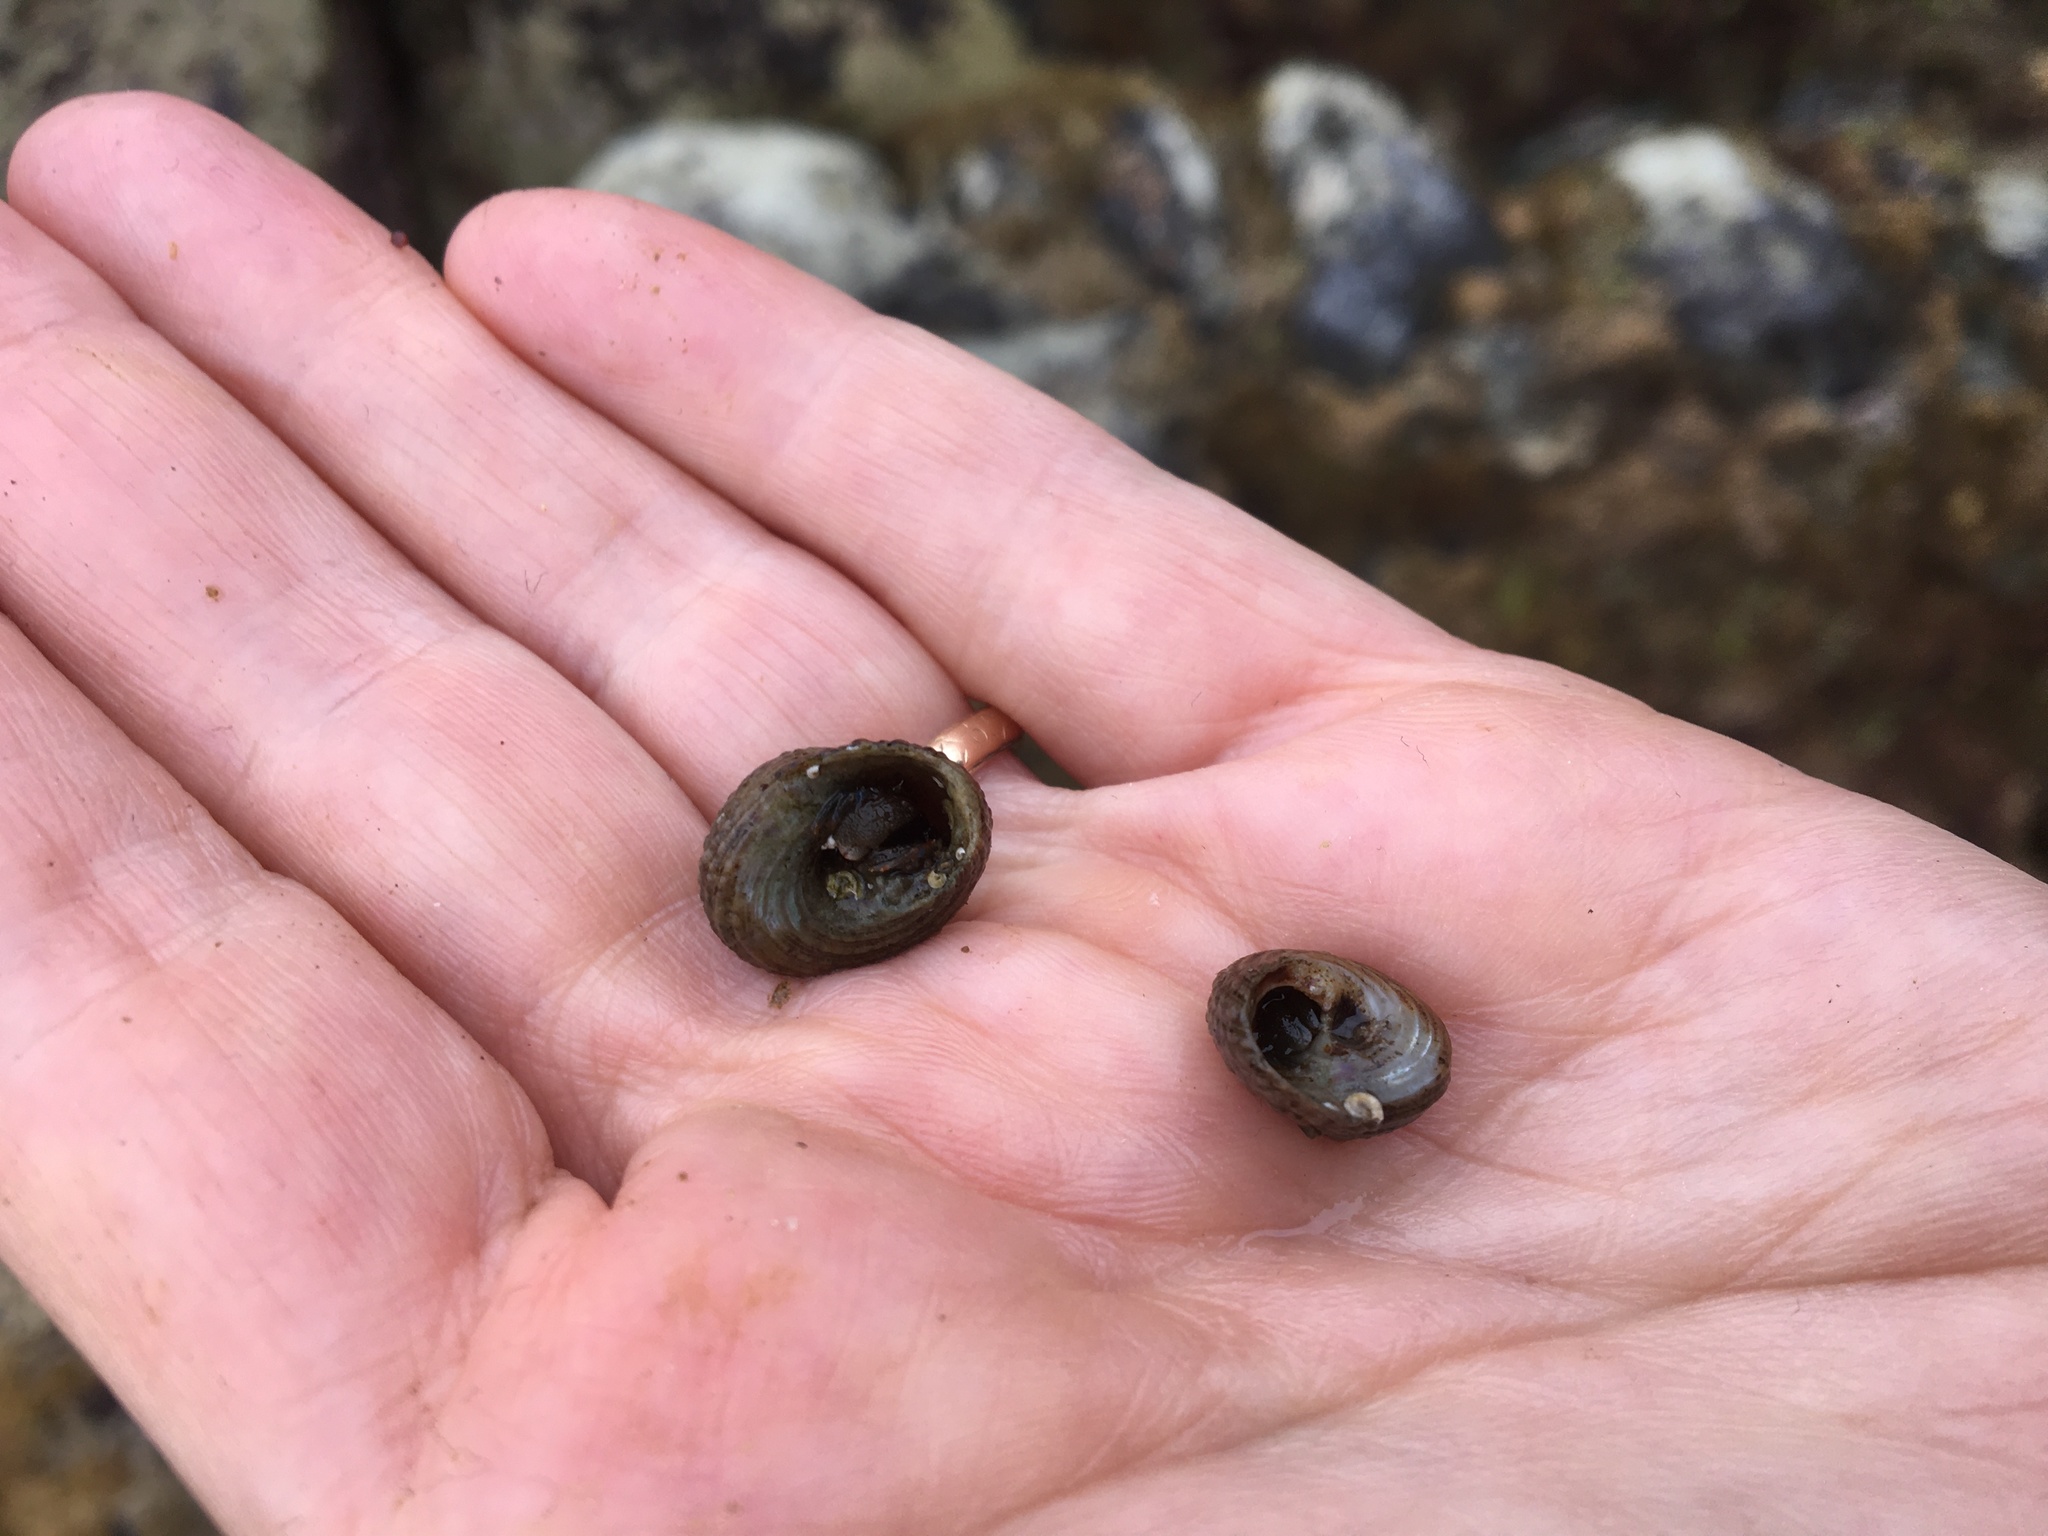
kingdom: Animalia
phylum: Arthropoda
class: Malacostraca
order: Decapoda
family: Paguridae
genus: Pagurus
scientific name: Pagurus samuelis
